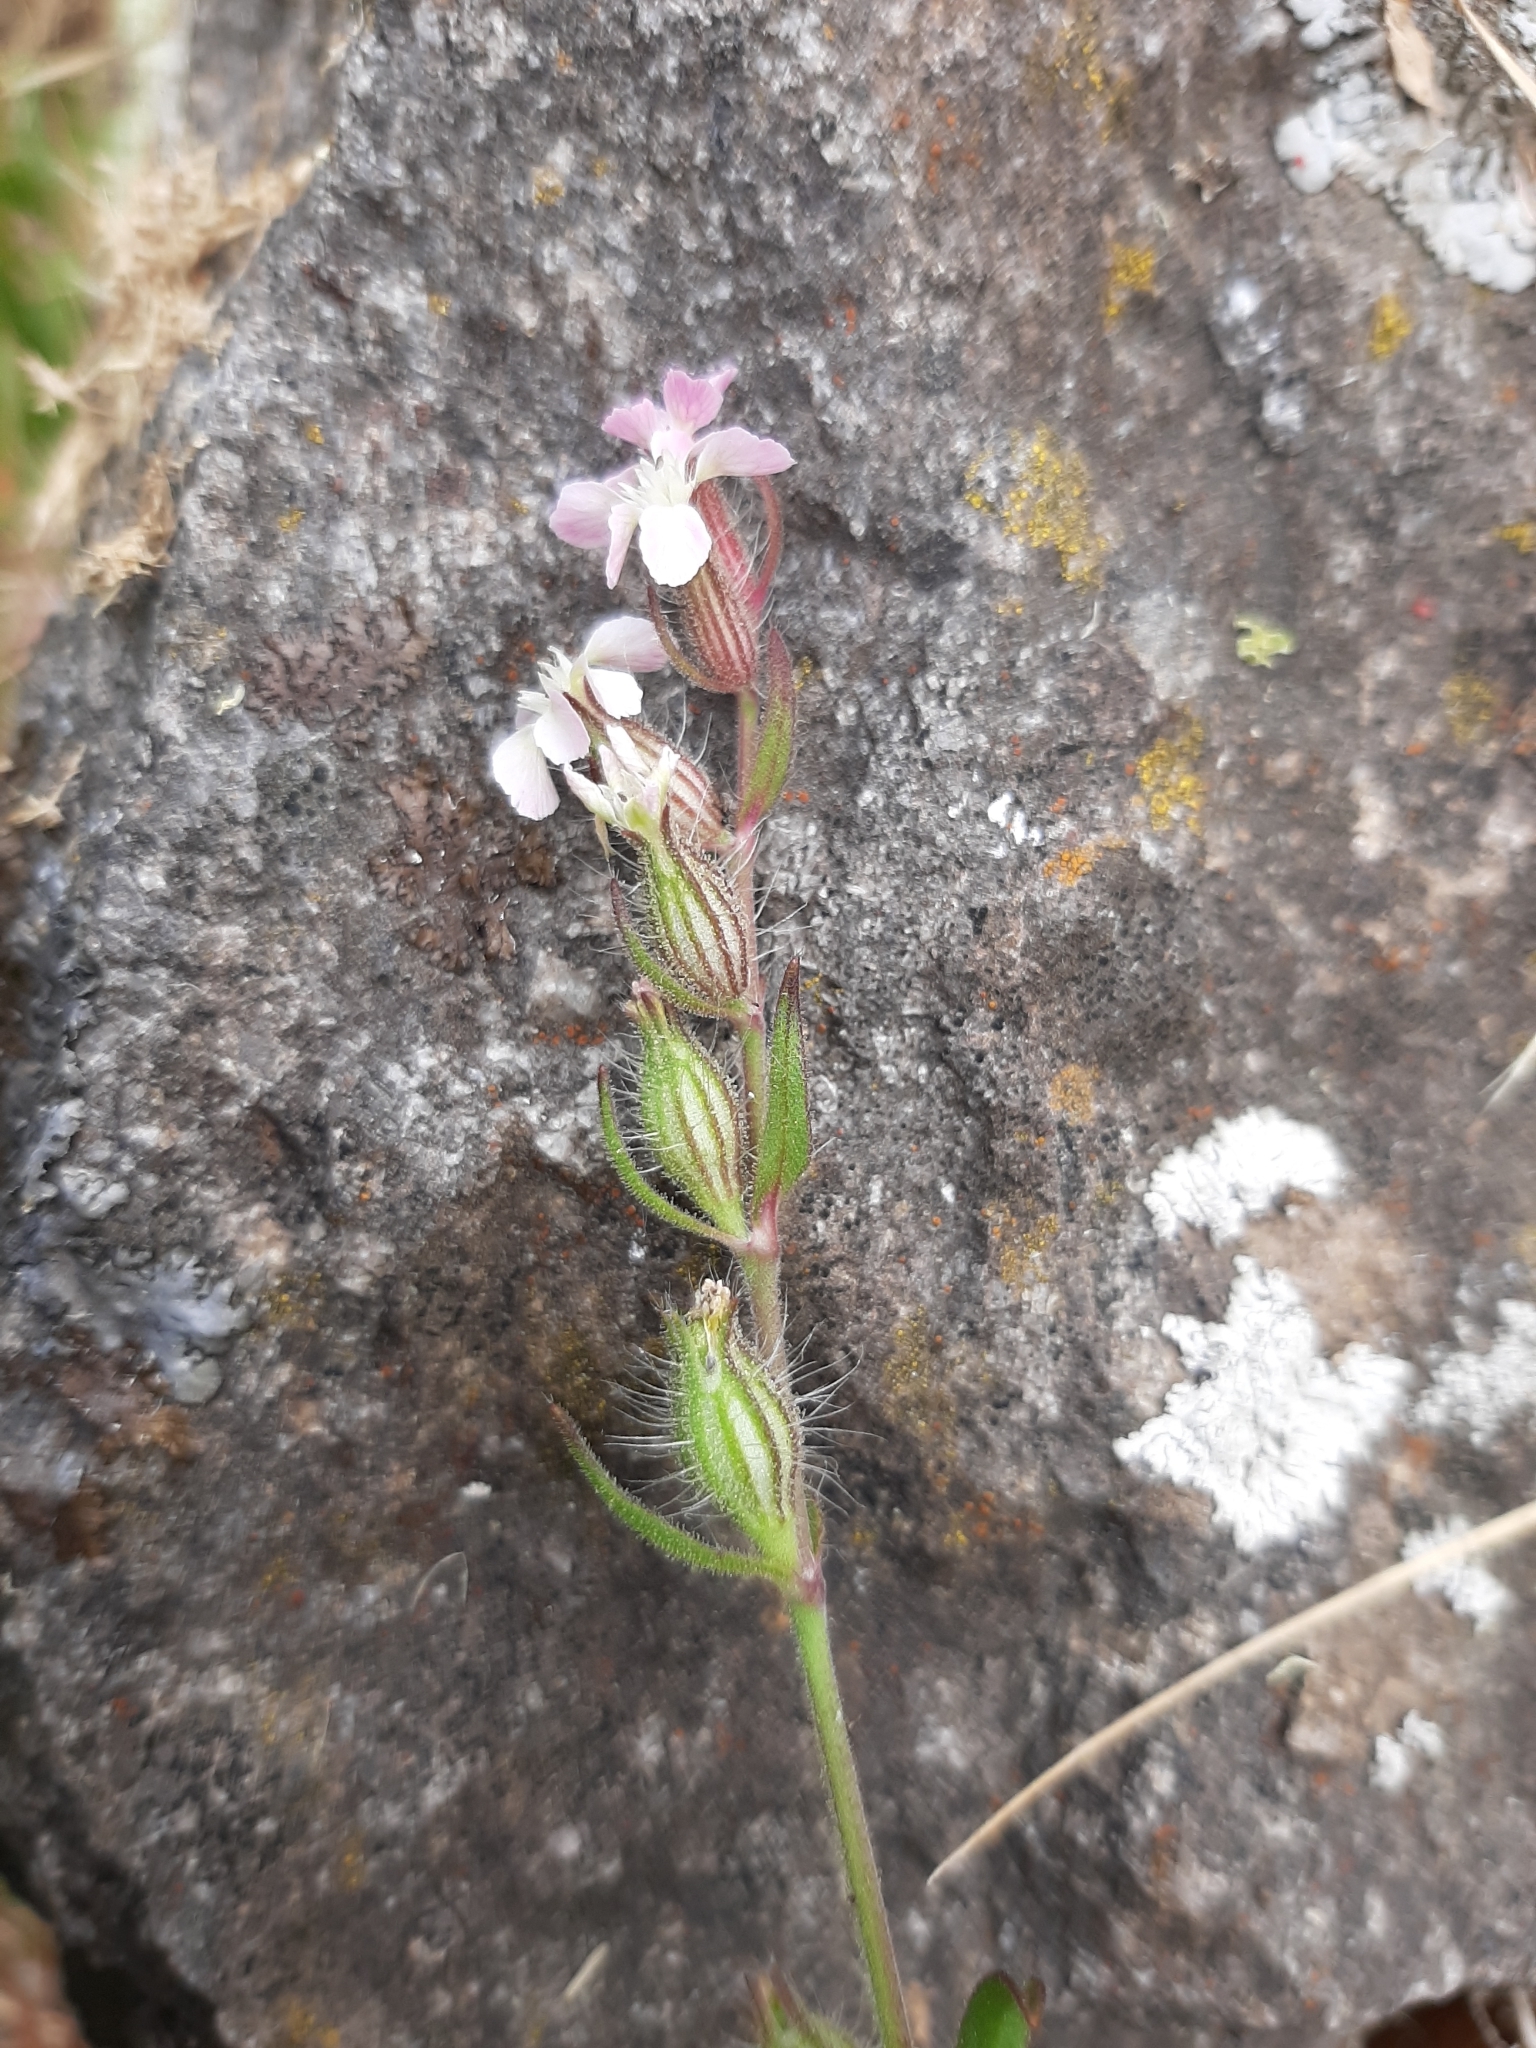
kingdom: Plantae
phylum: Tracheophyta
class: Magnoliopsida
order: Caryophyllales
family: Caryophyllaceae
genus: Silene
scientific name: Silene gallica
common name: Small-flowered catchfly
